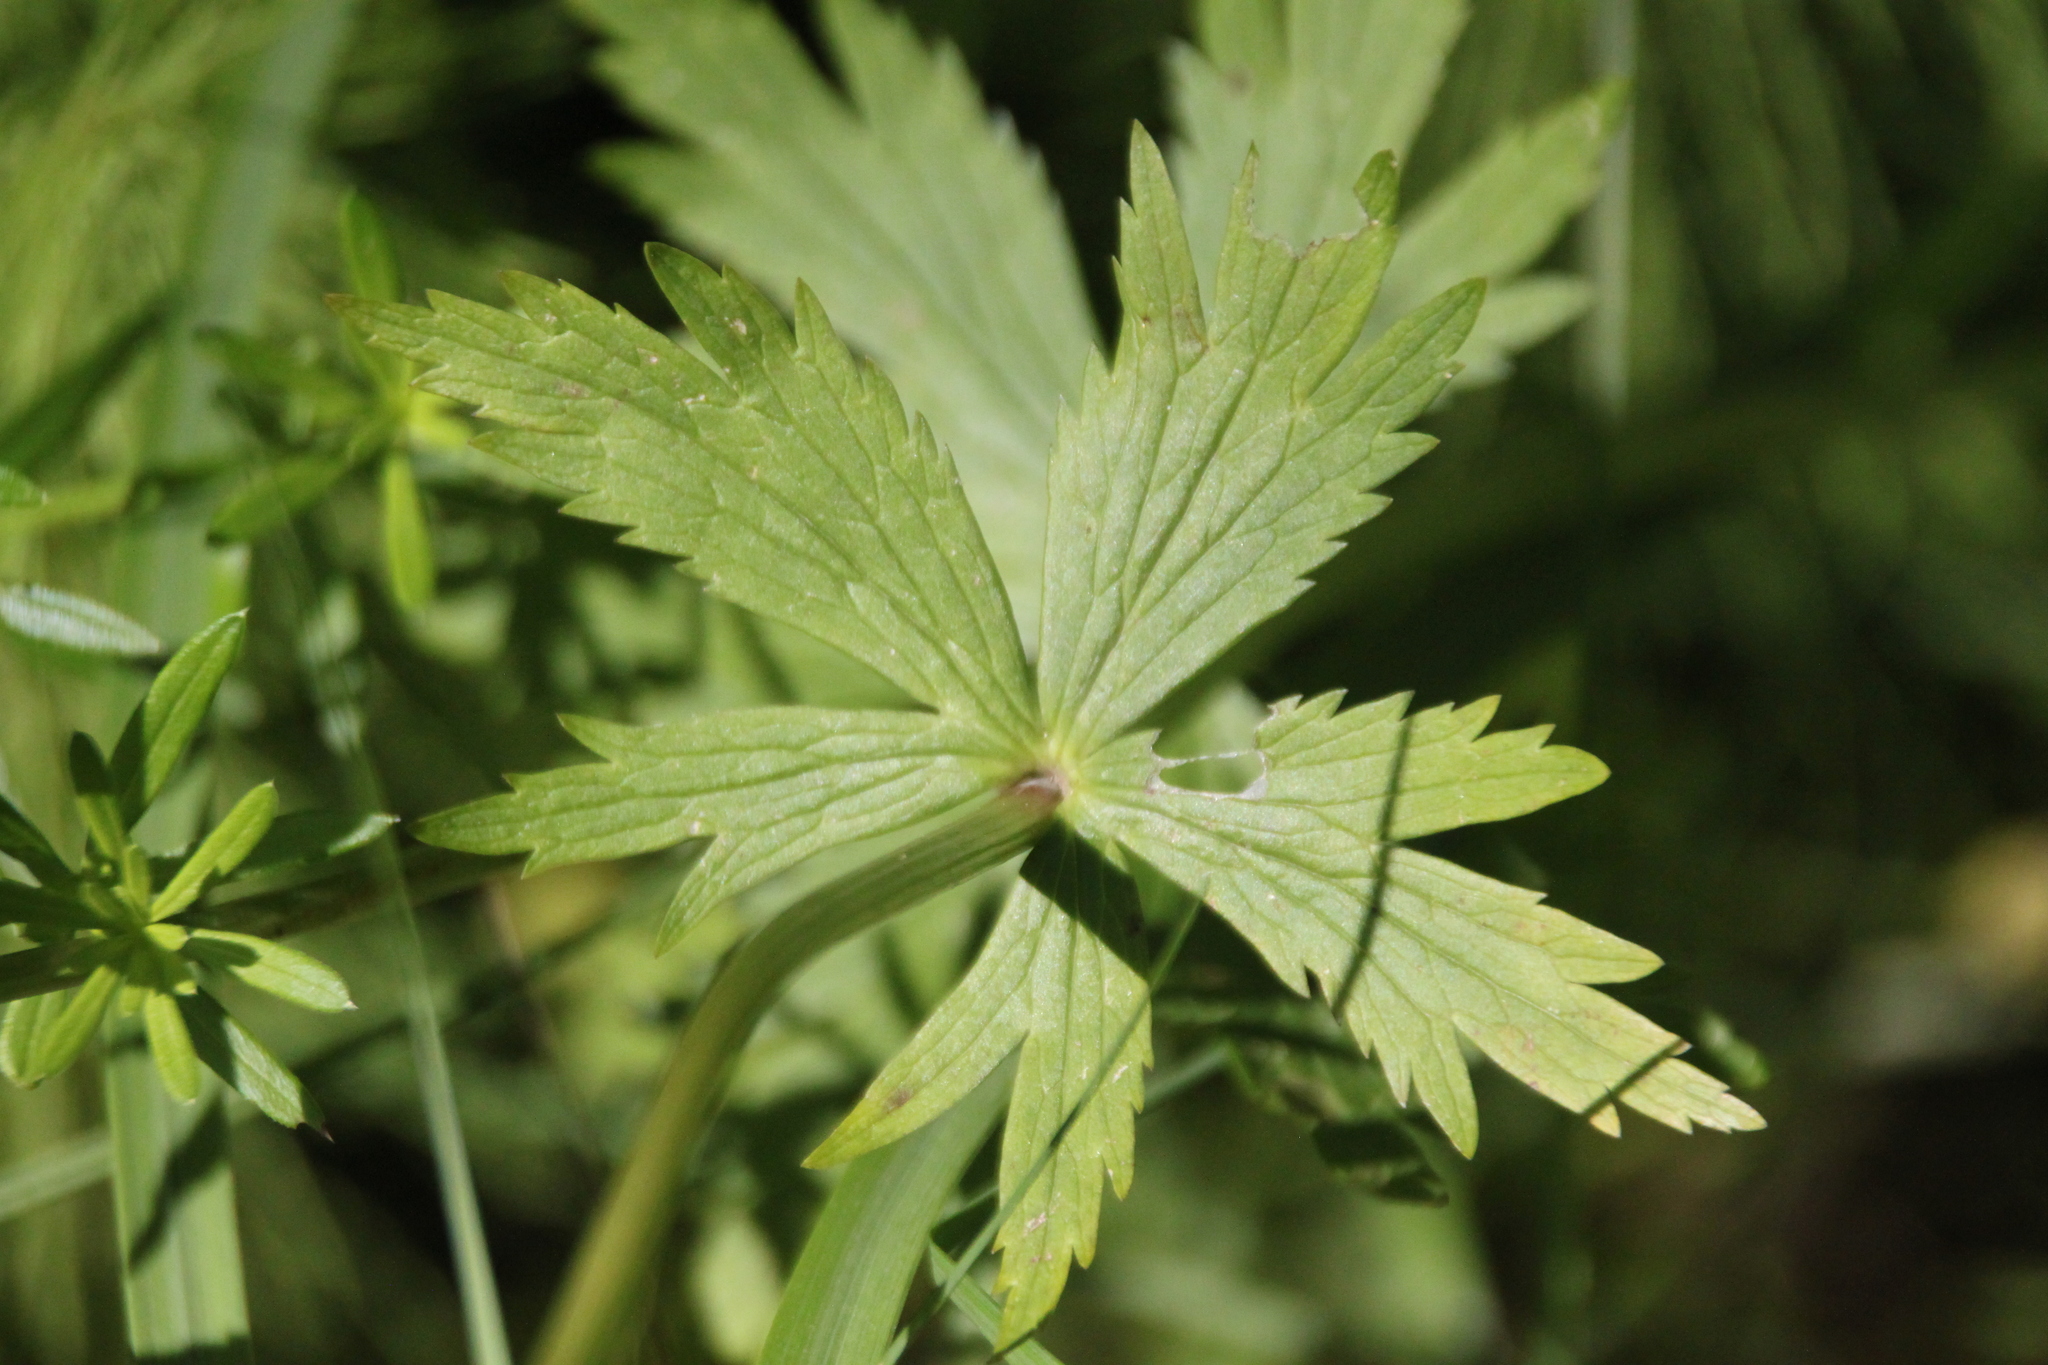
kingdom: Plantae
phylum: Tracheophyta
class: Magnoliopsida
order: Ranunculales
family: Ranunculaceae
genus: Trollius
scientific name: Trollius europaeus
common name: European globeflower
